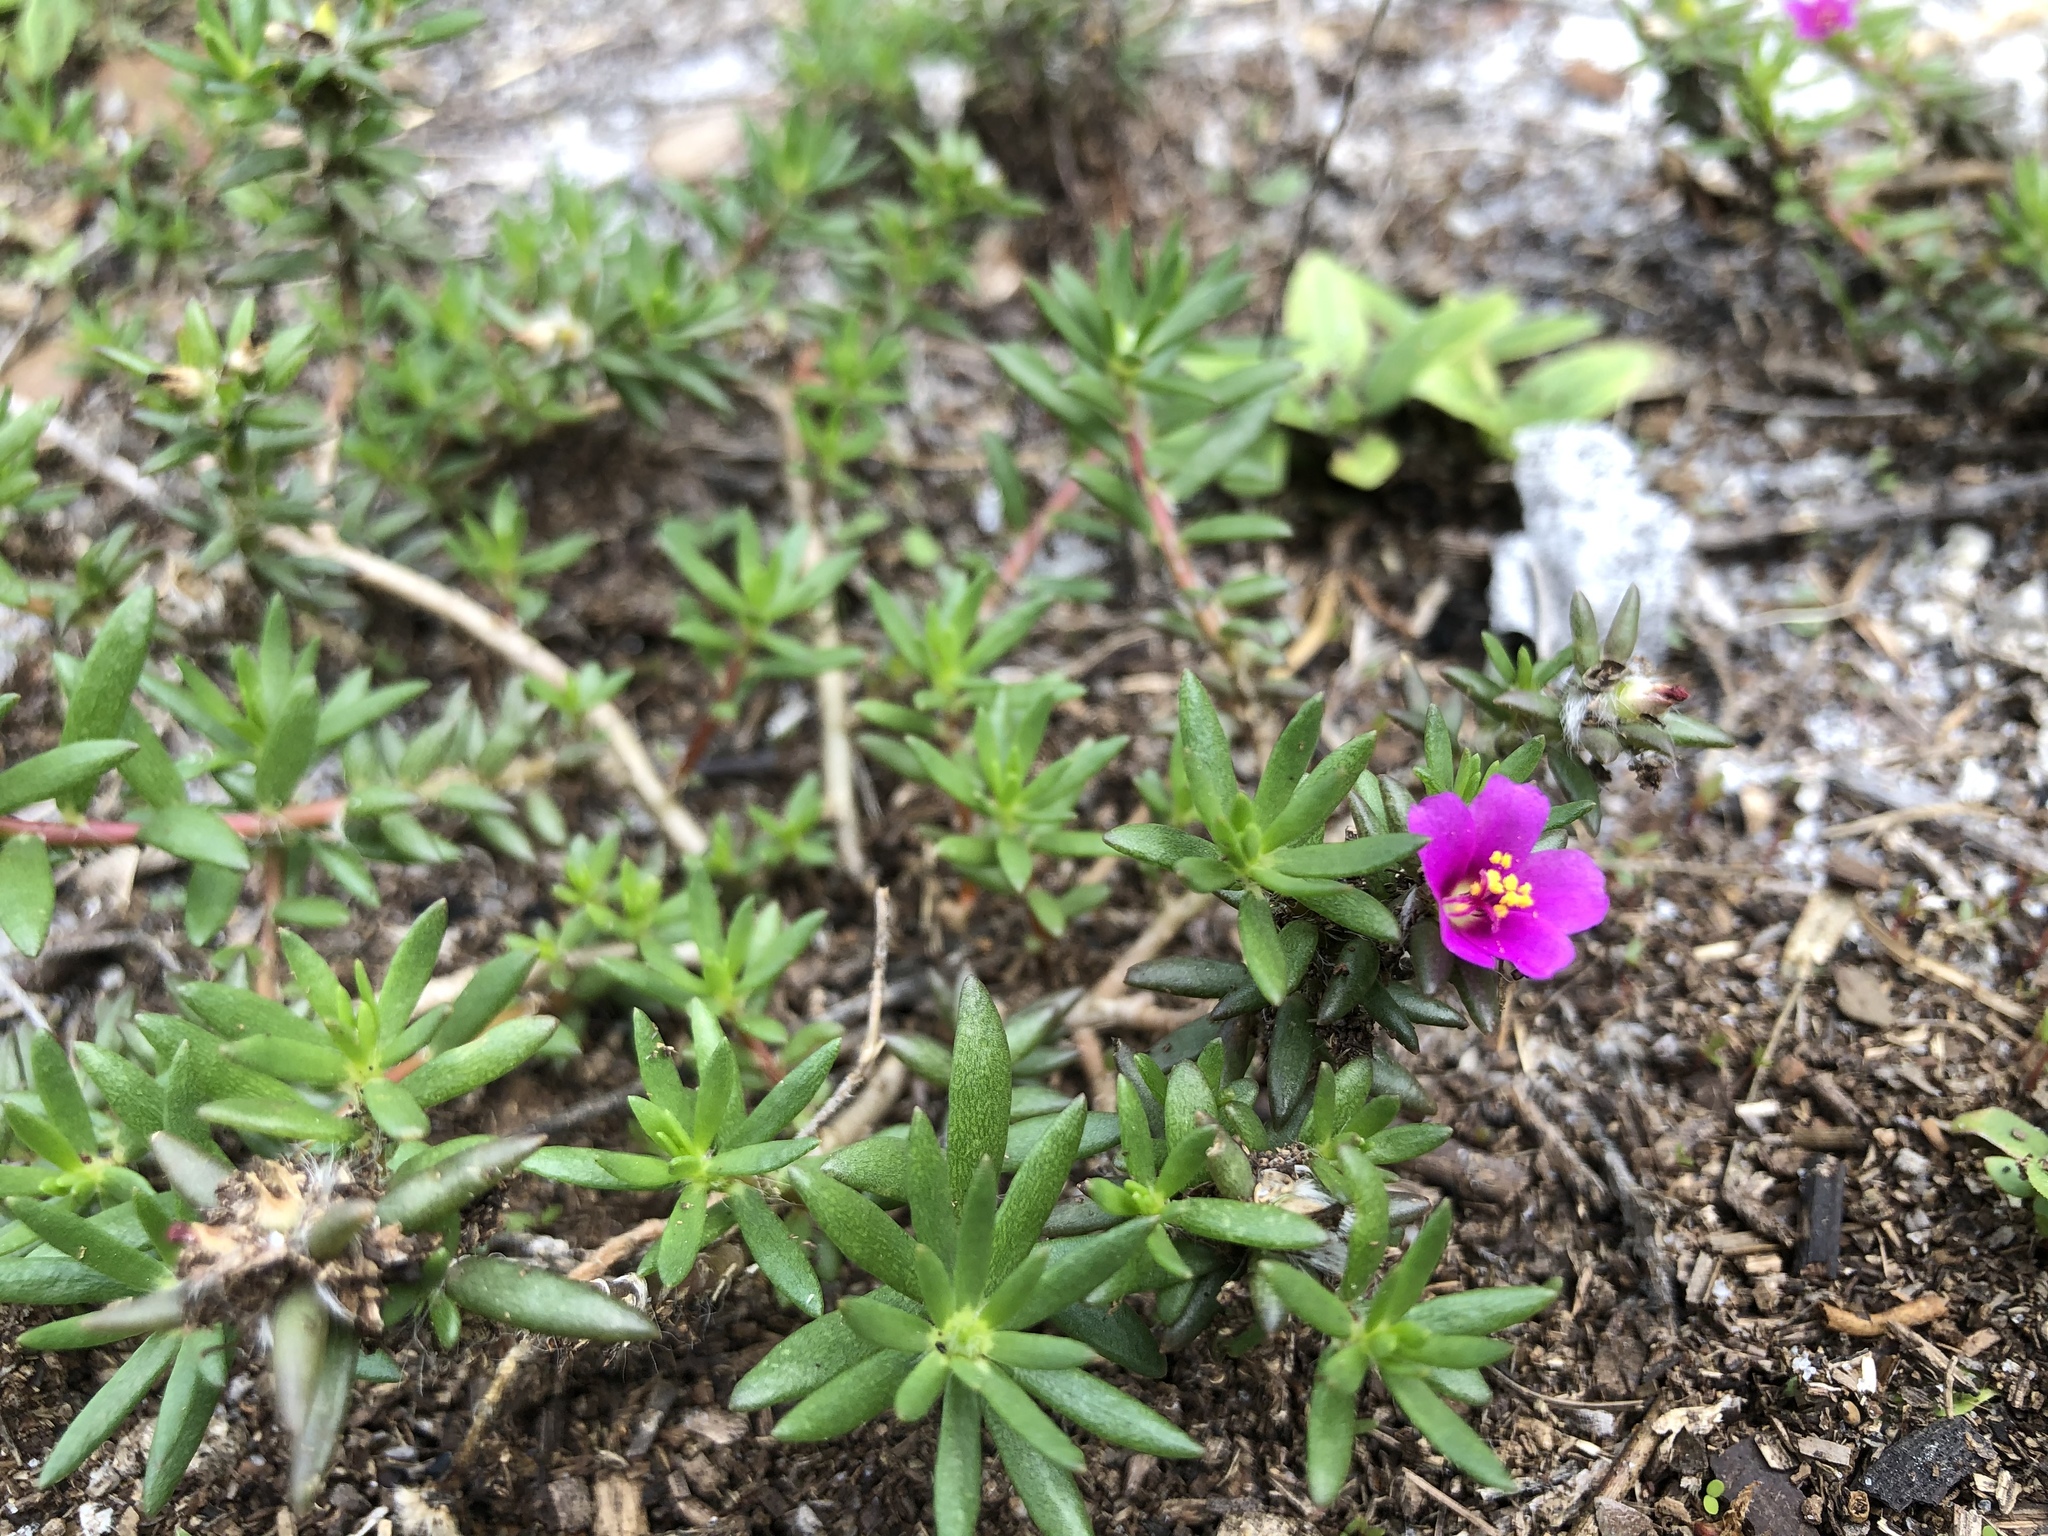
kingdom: Plantae
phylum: Tracheophyta
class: Magnoliopsida
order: Caryophyllales
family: Portulacaceae
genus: Portulaca
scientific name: Portulaca pilosa
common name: Kiss me quick
